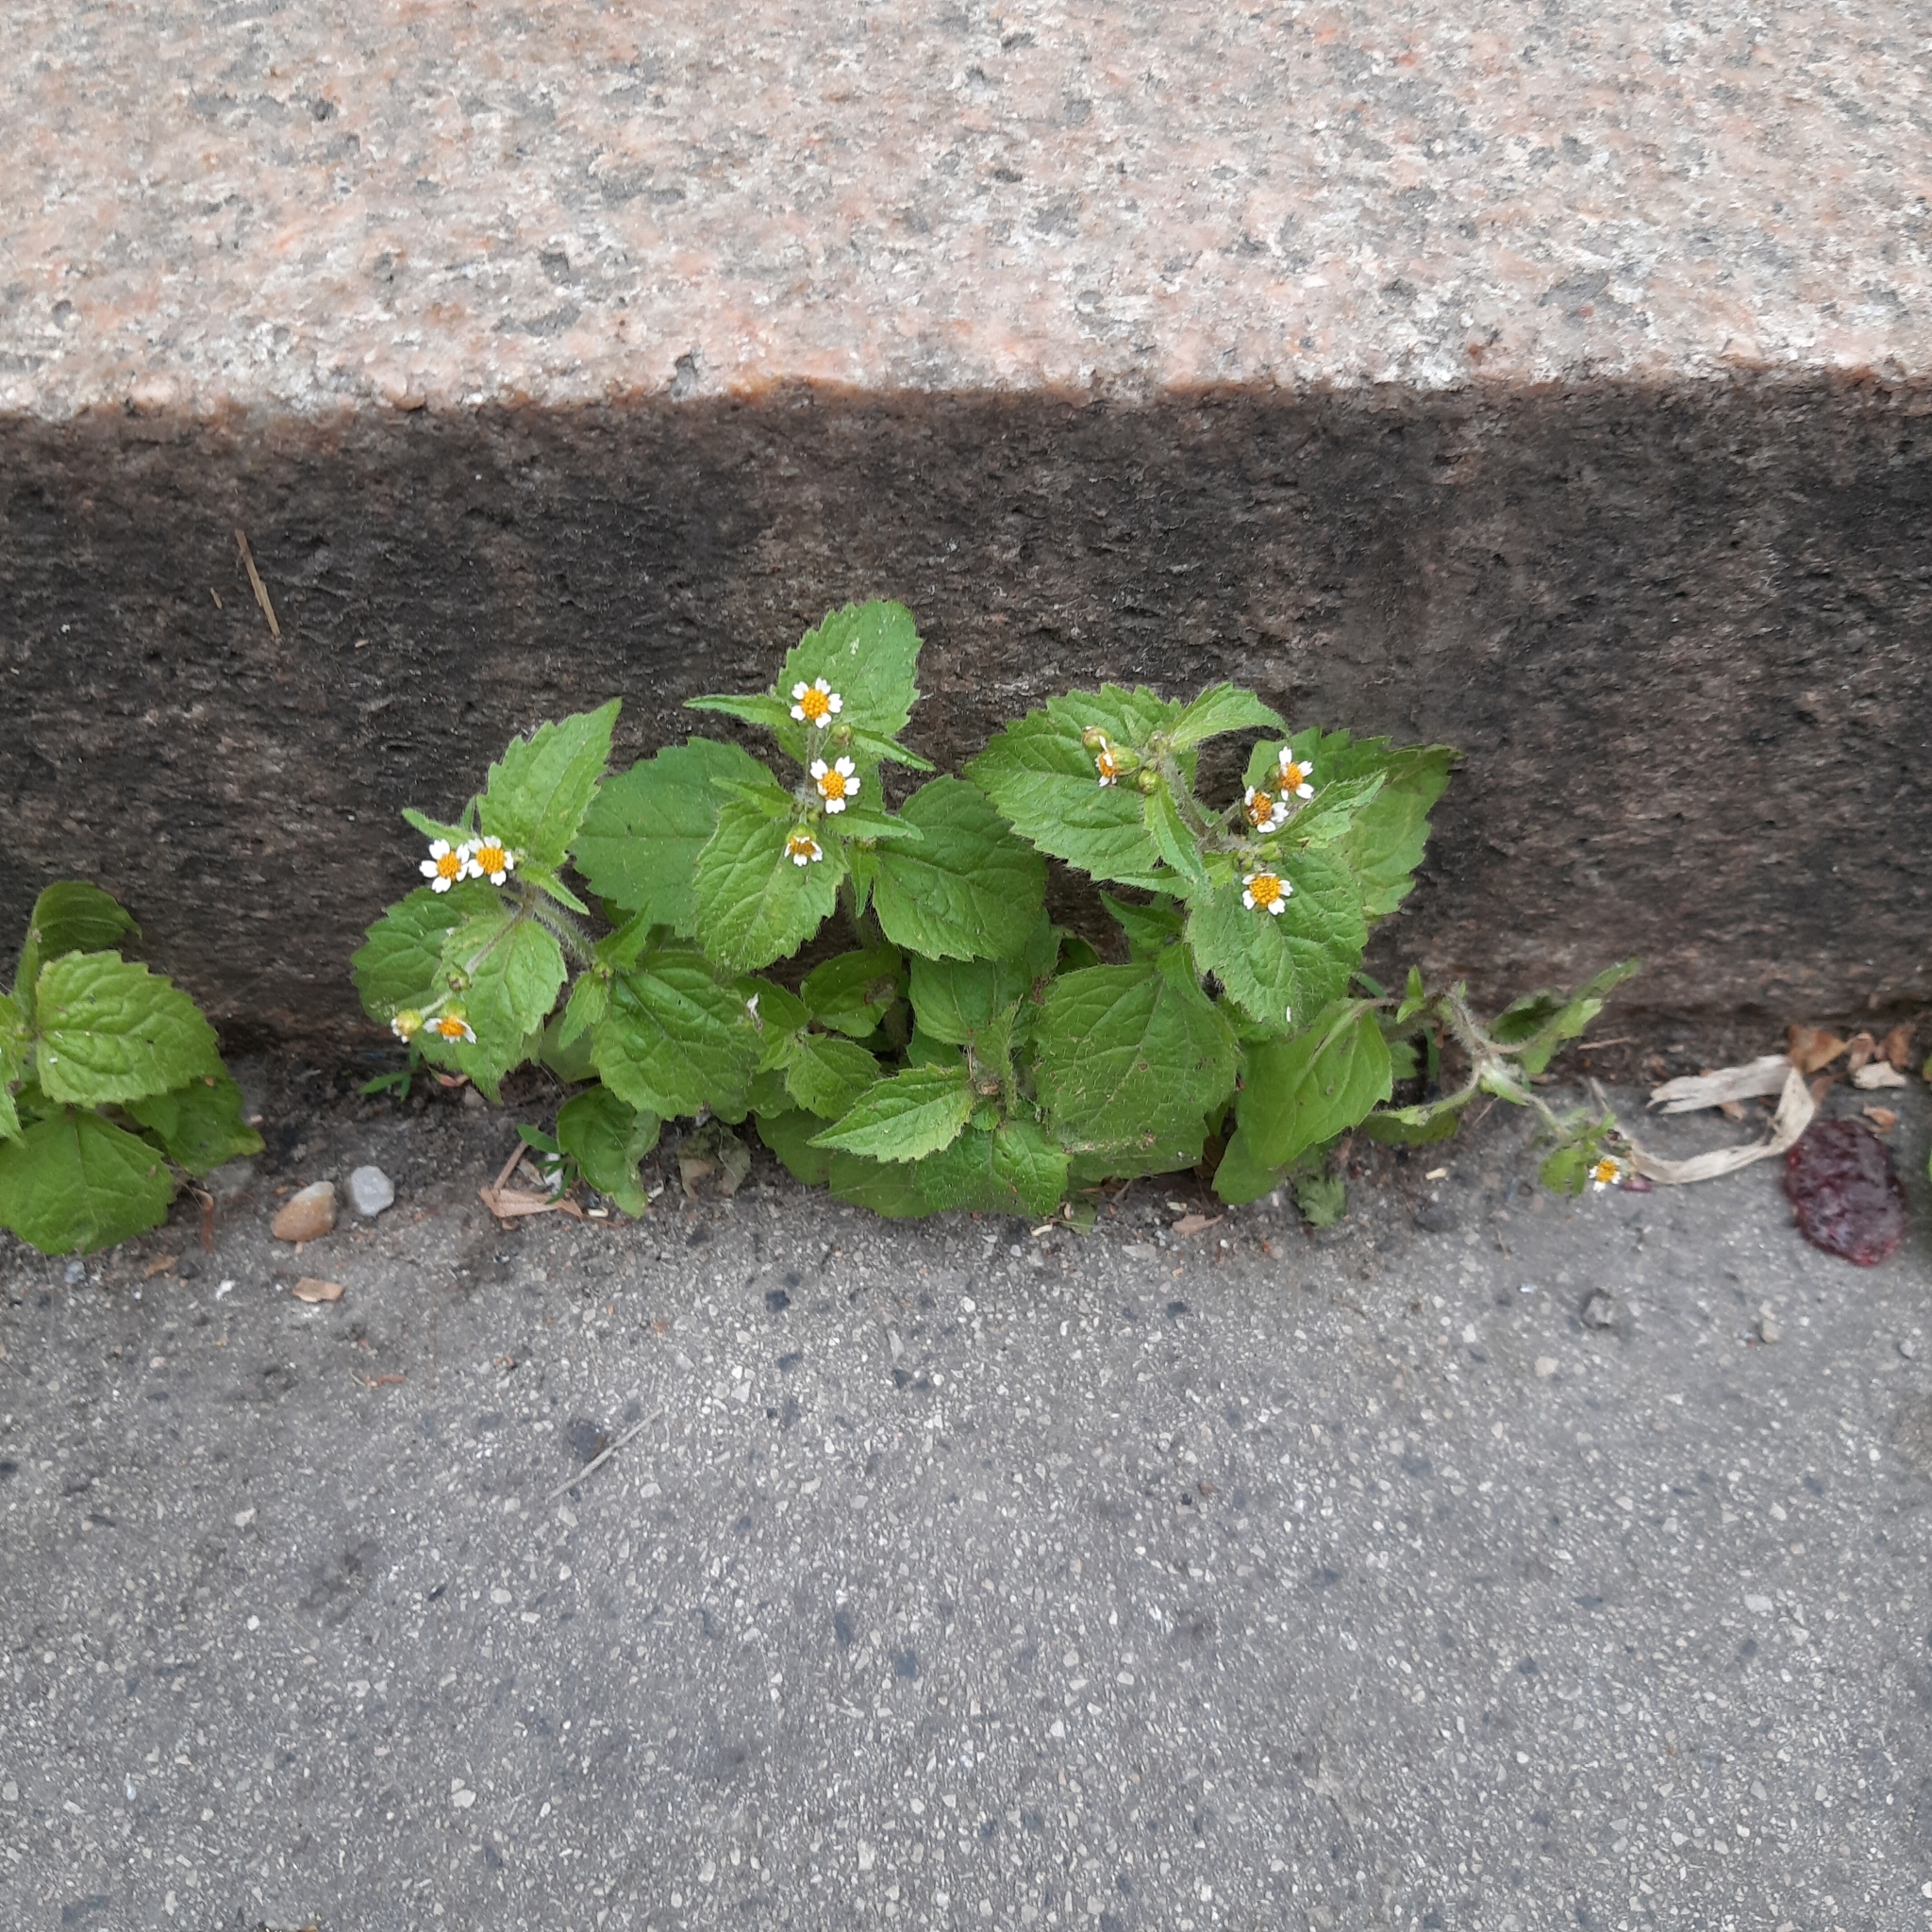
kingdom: Plantae
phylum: Tracheophyta
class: Magnoliopsida
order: Asterales
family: Asteraceae
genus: Galinsoga
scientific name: Galinsoga quadriradiata
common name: Shaggy soldier
